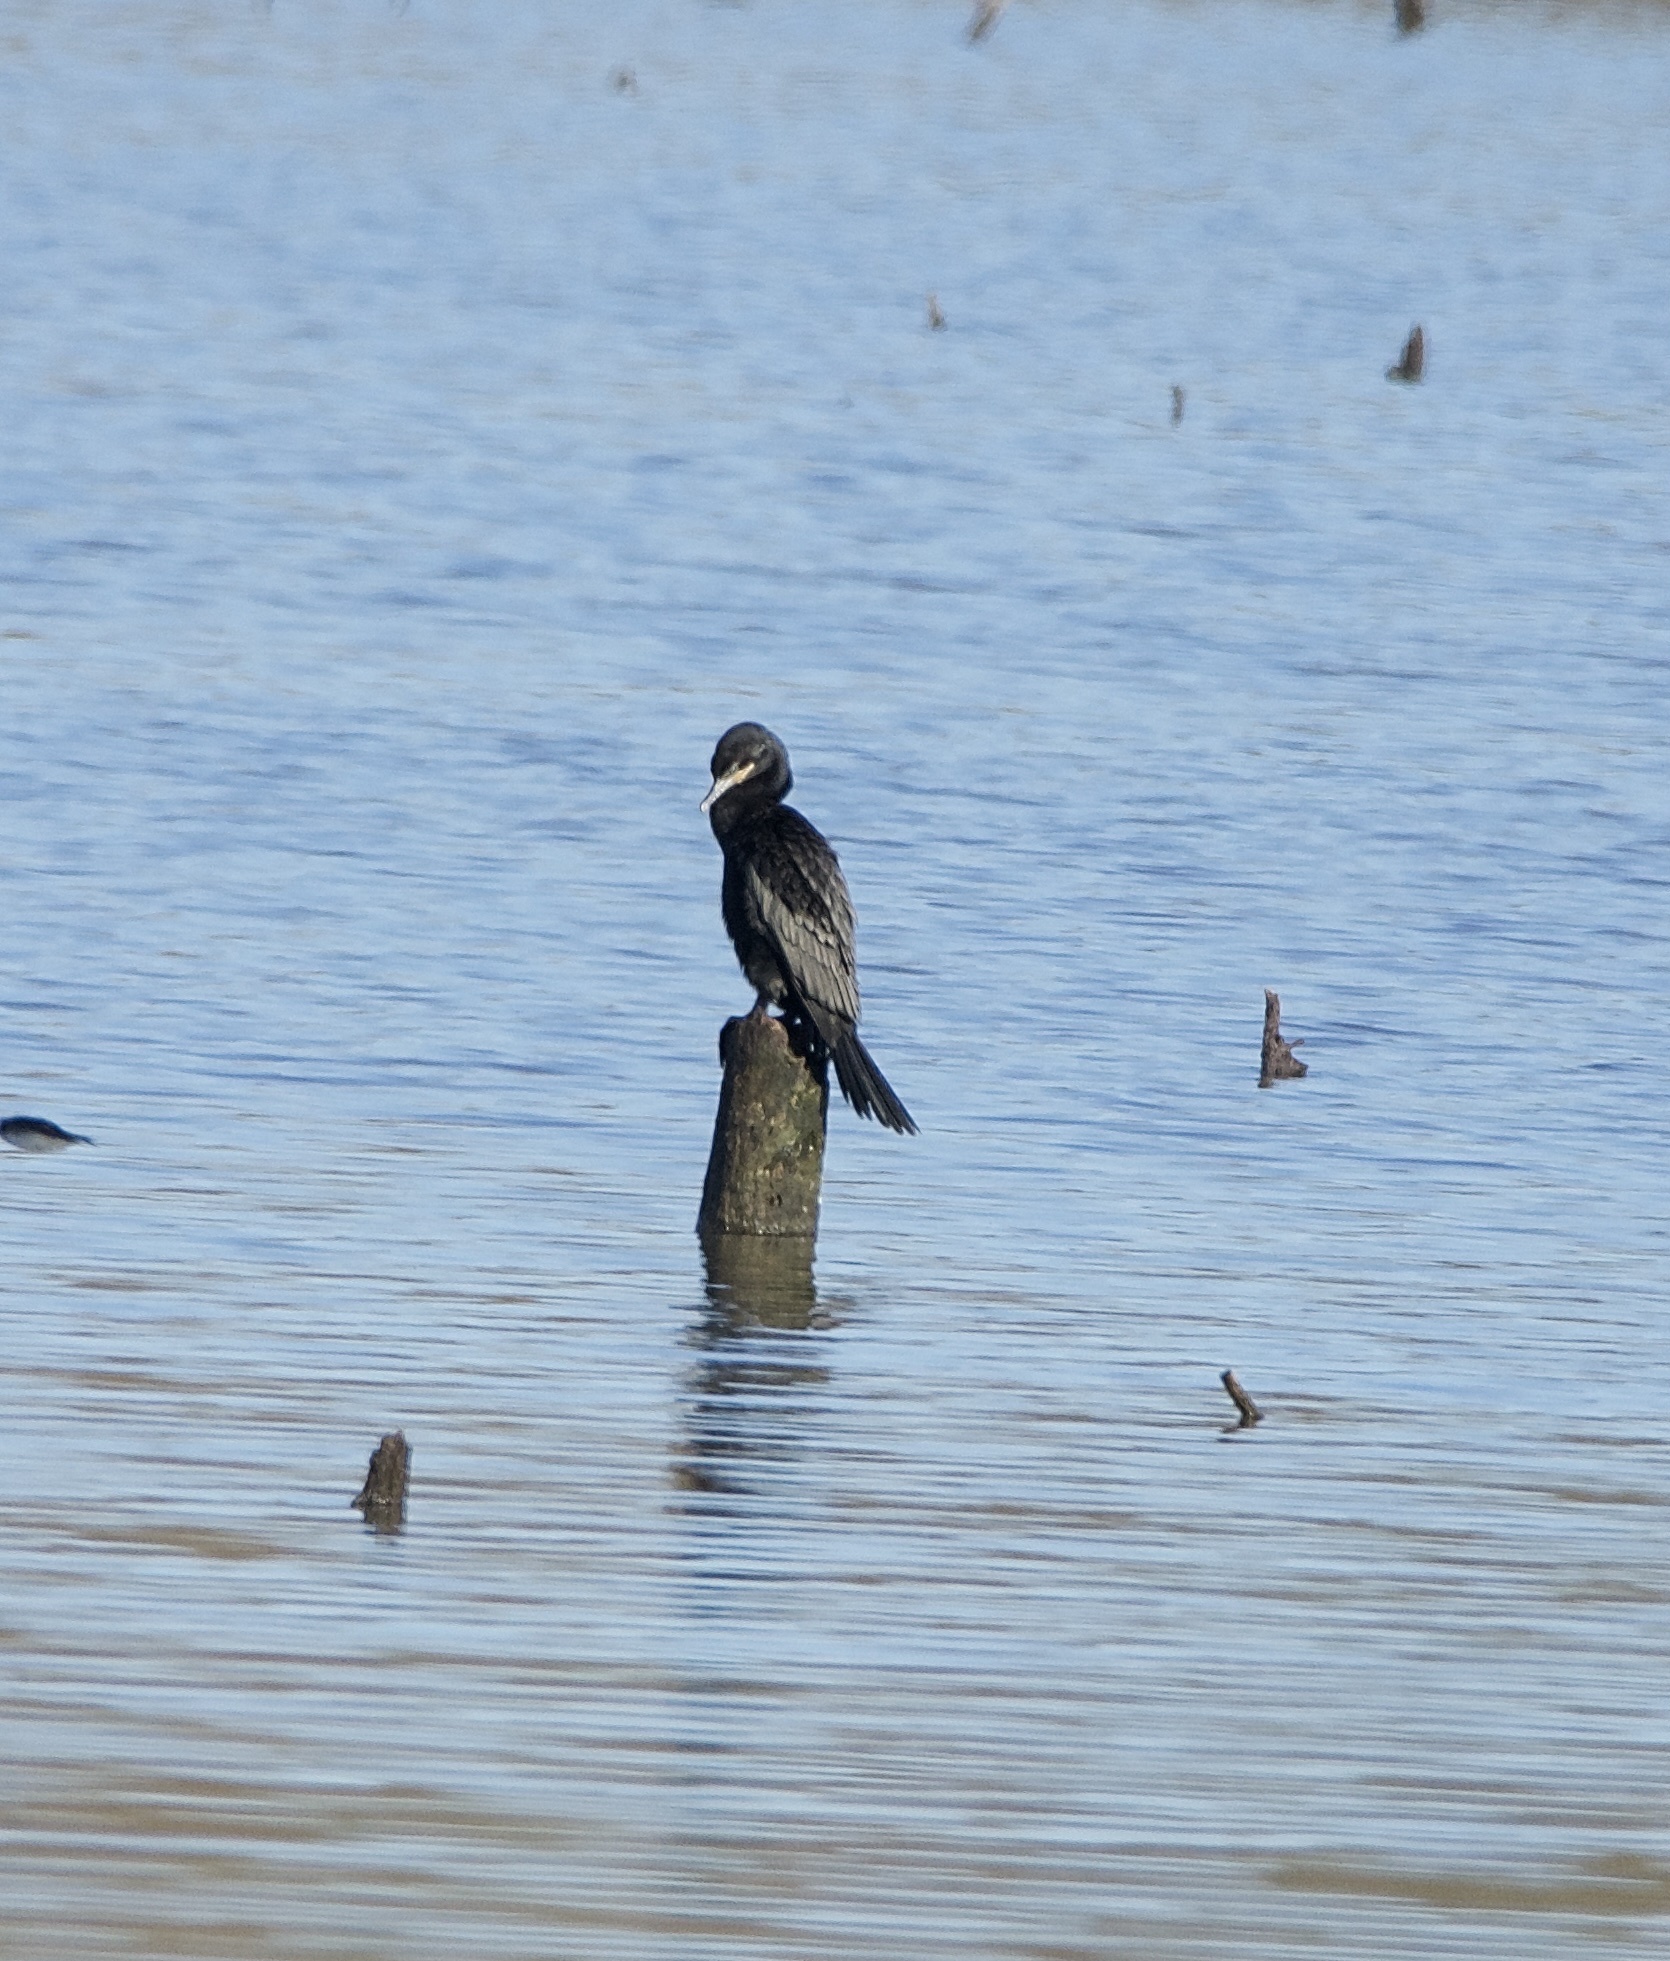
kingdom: Animalia
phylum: Chordata
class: Aves
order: Suliformes
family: Phalacrocoracidae
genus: Phalacrocorax
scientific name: Phalacrocorax brasilianus
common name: Neotropic cormorant
